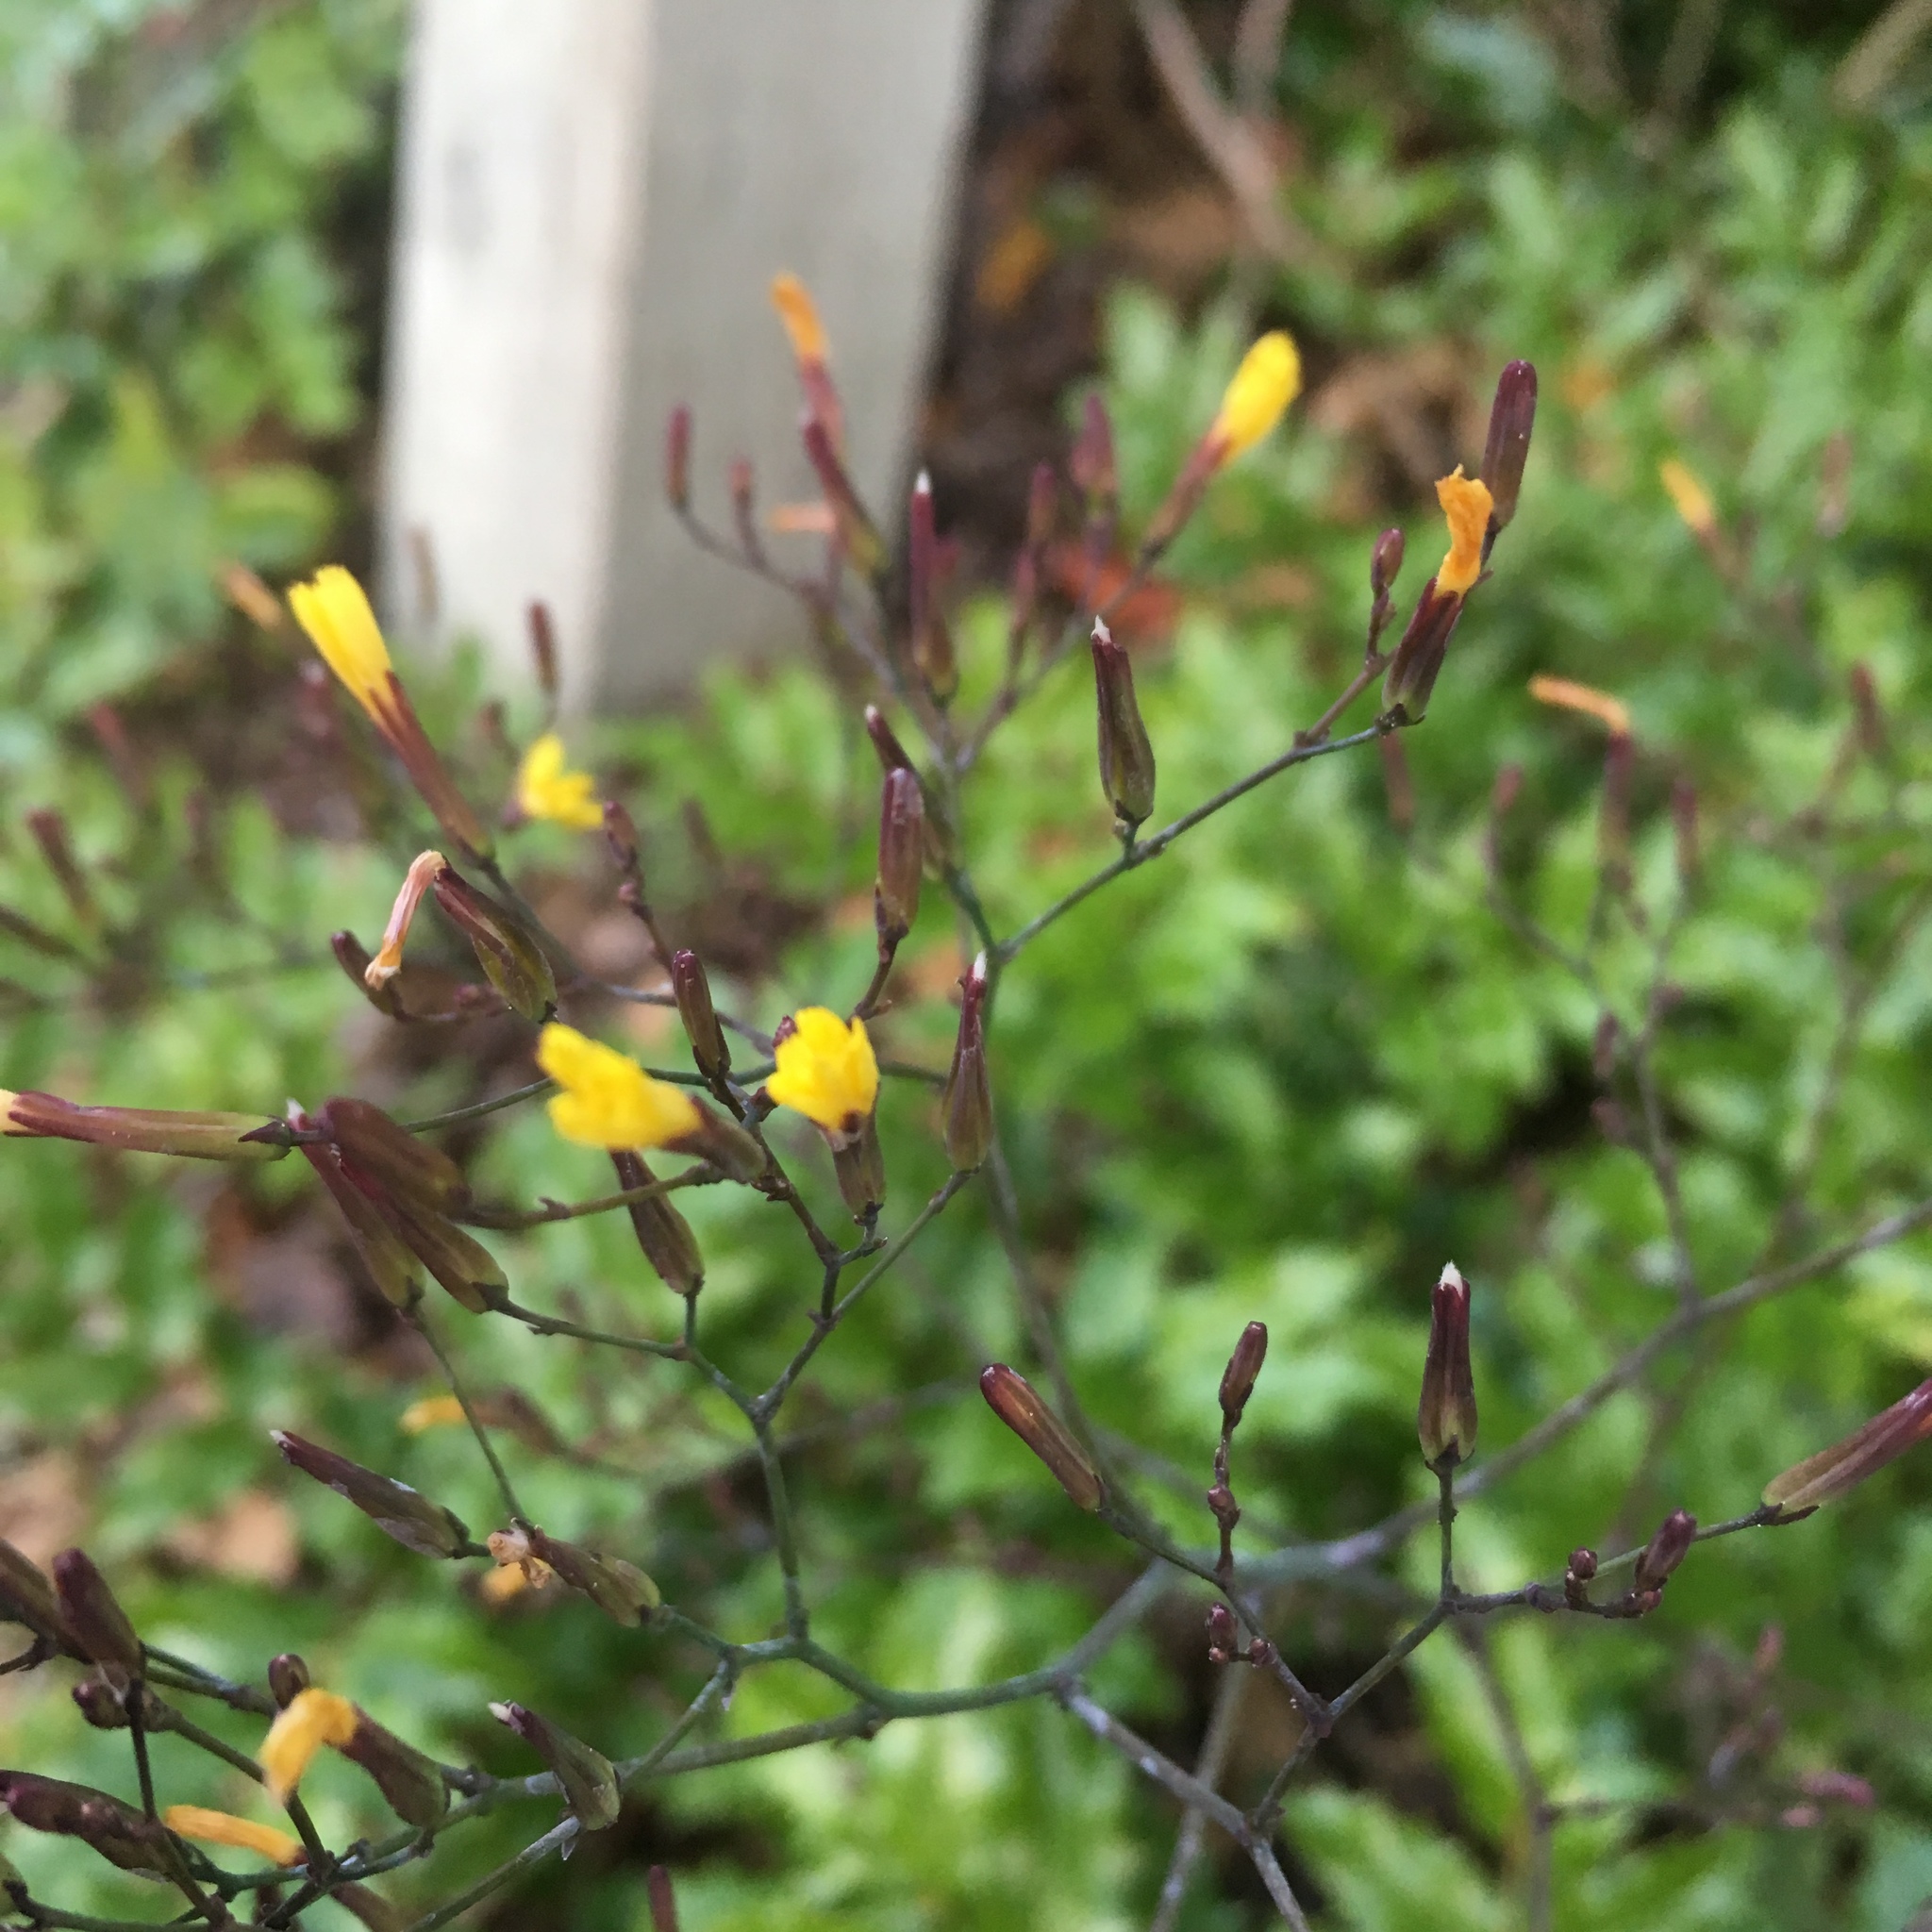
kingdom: Plantae
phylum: Tracheophyta
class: Magnoliopsida
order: Asterales
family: Asteraceae
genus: Mycelis
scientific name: Mycelis muralis
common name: Wall lettuce
